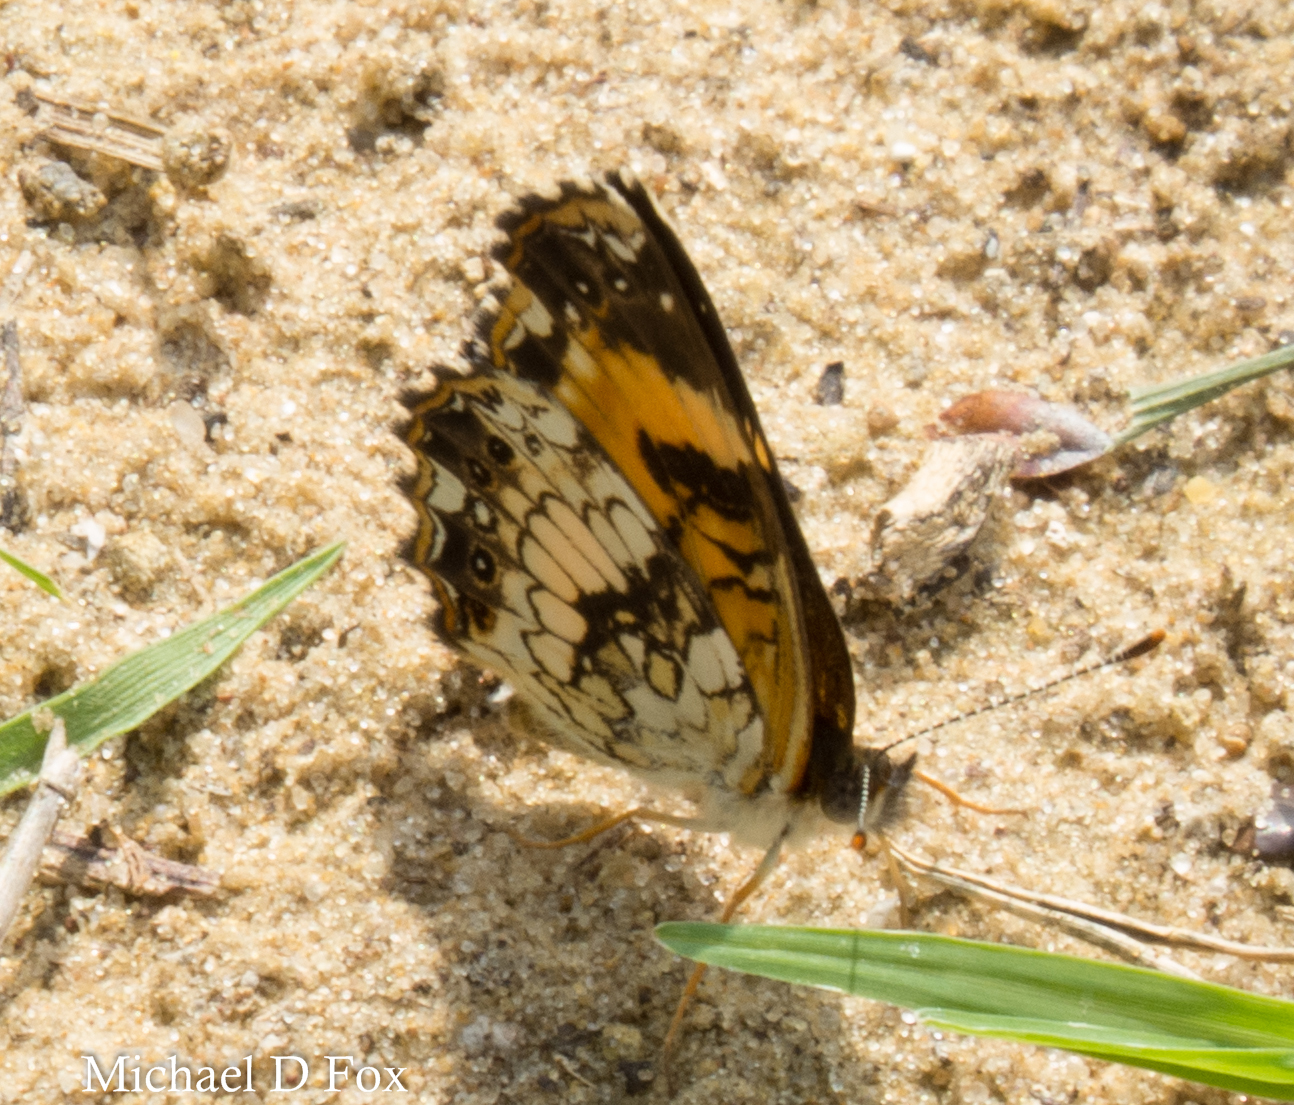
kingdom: Animalia
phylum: Arthropoda
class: Insecta
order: Lepidoptera
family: Nymphalidae
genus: Chlosyne
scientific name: Chlosyne nycteis
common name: Silvery checkerspot
